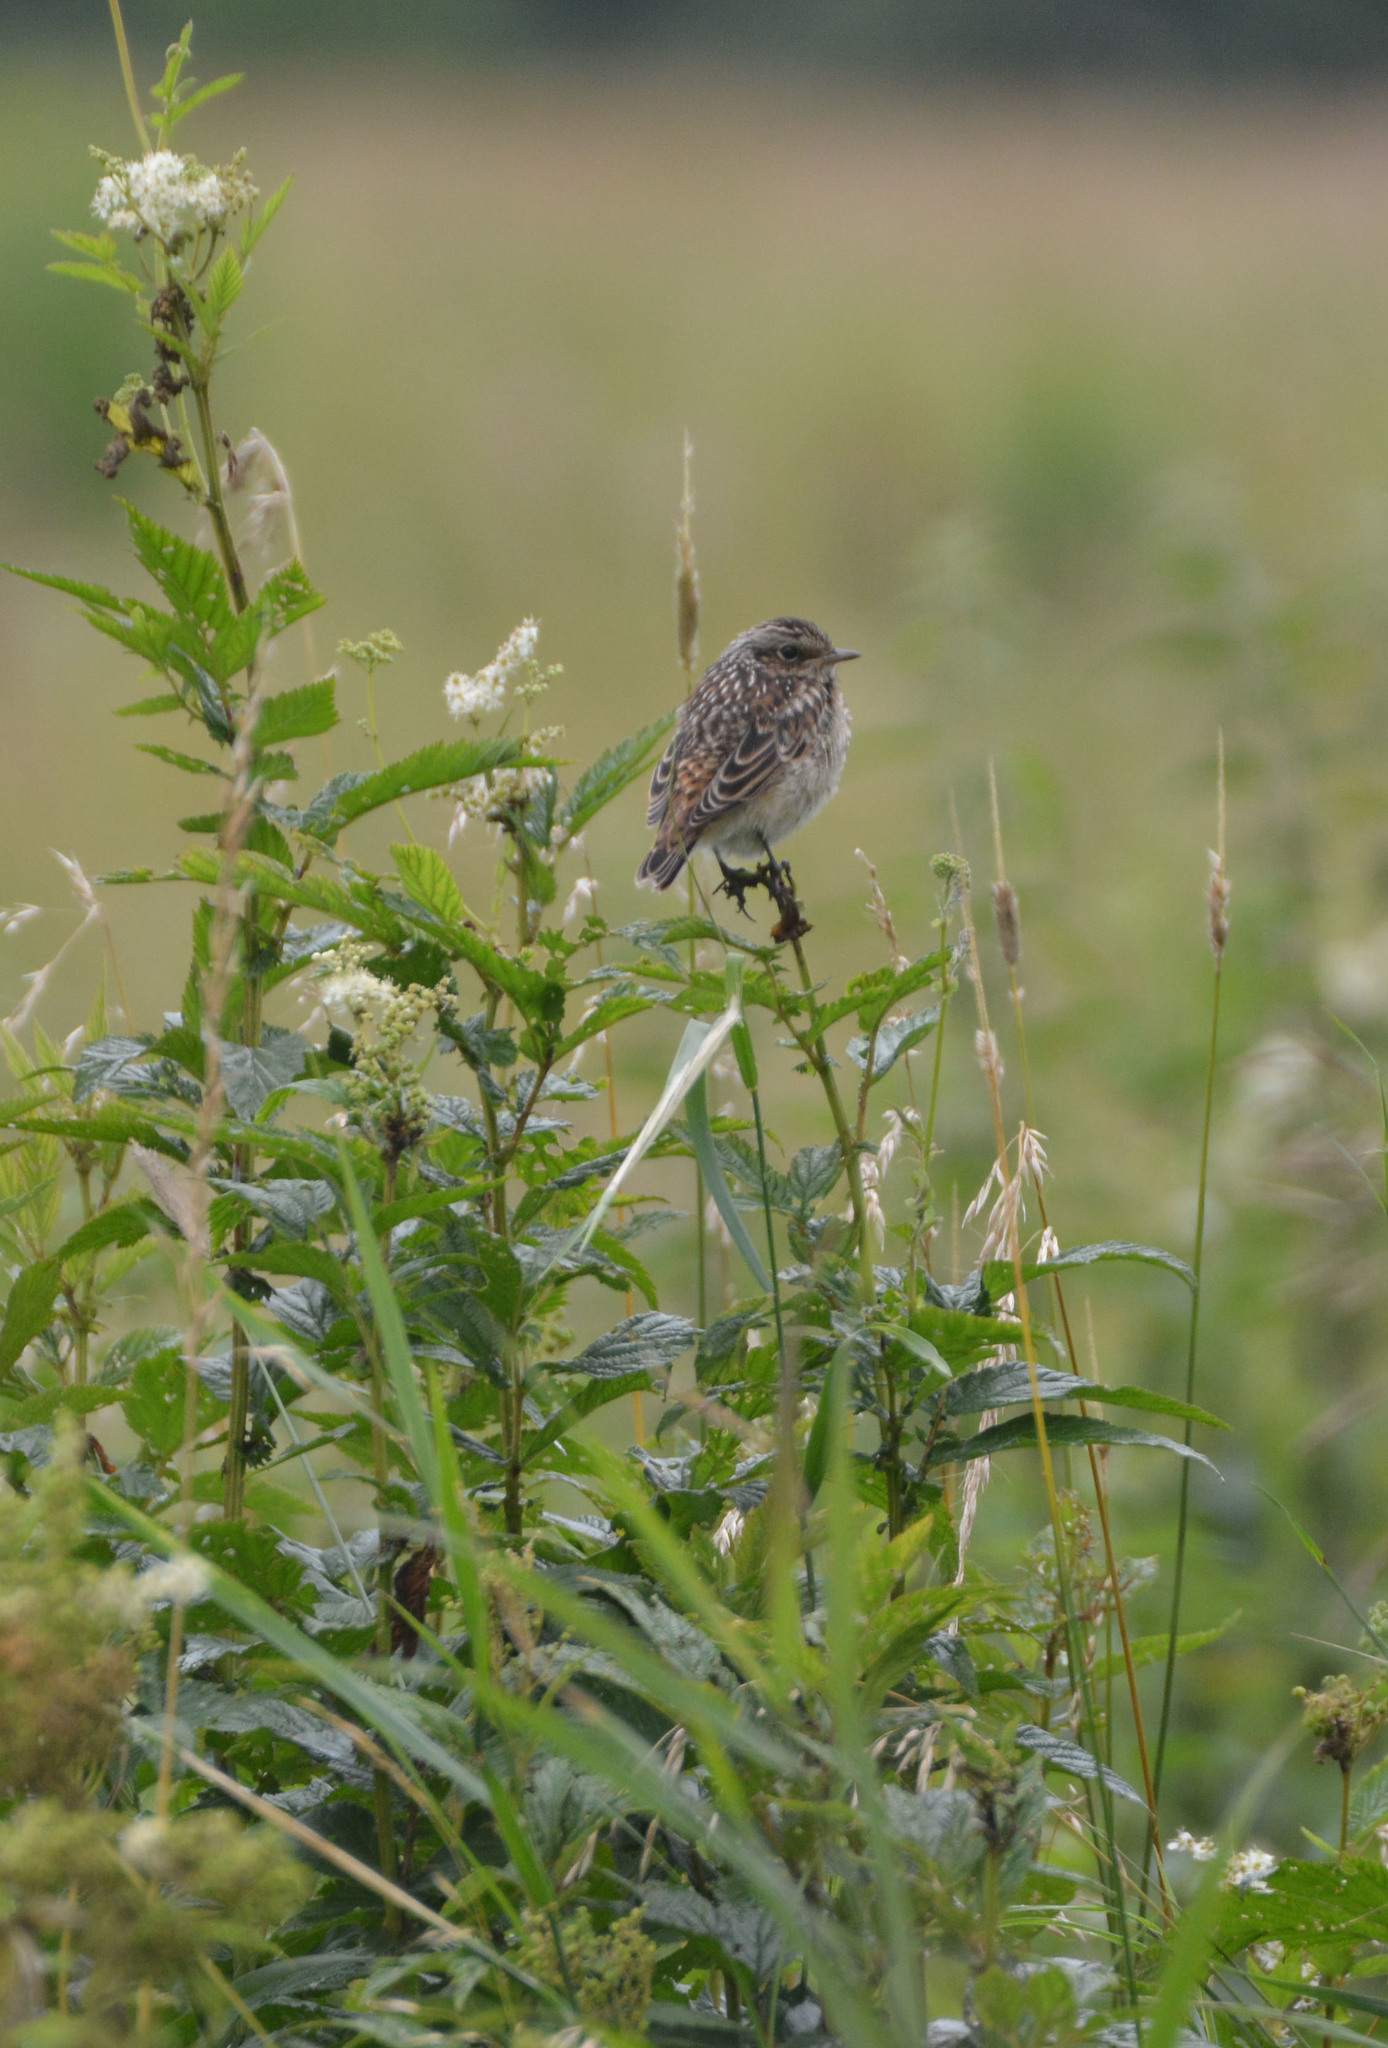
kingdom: Animalia
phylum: Chordata
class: Aves
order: Passeriformes
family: Muscicapidae
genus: Saxicola
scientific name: Saxicola rubetra
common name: Whinchat
